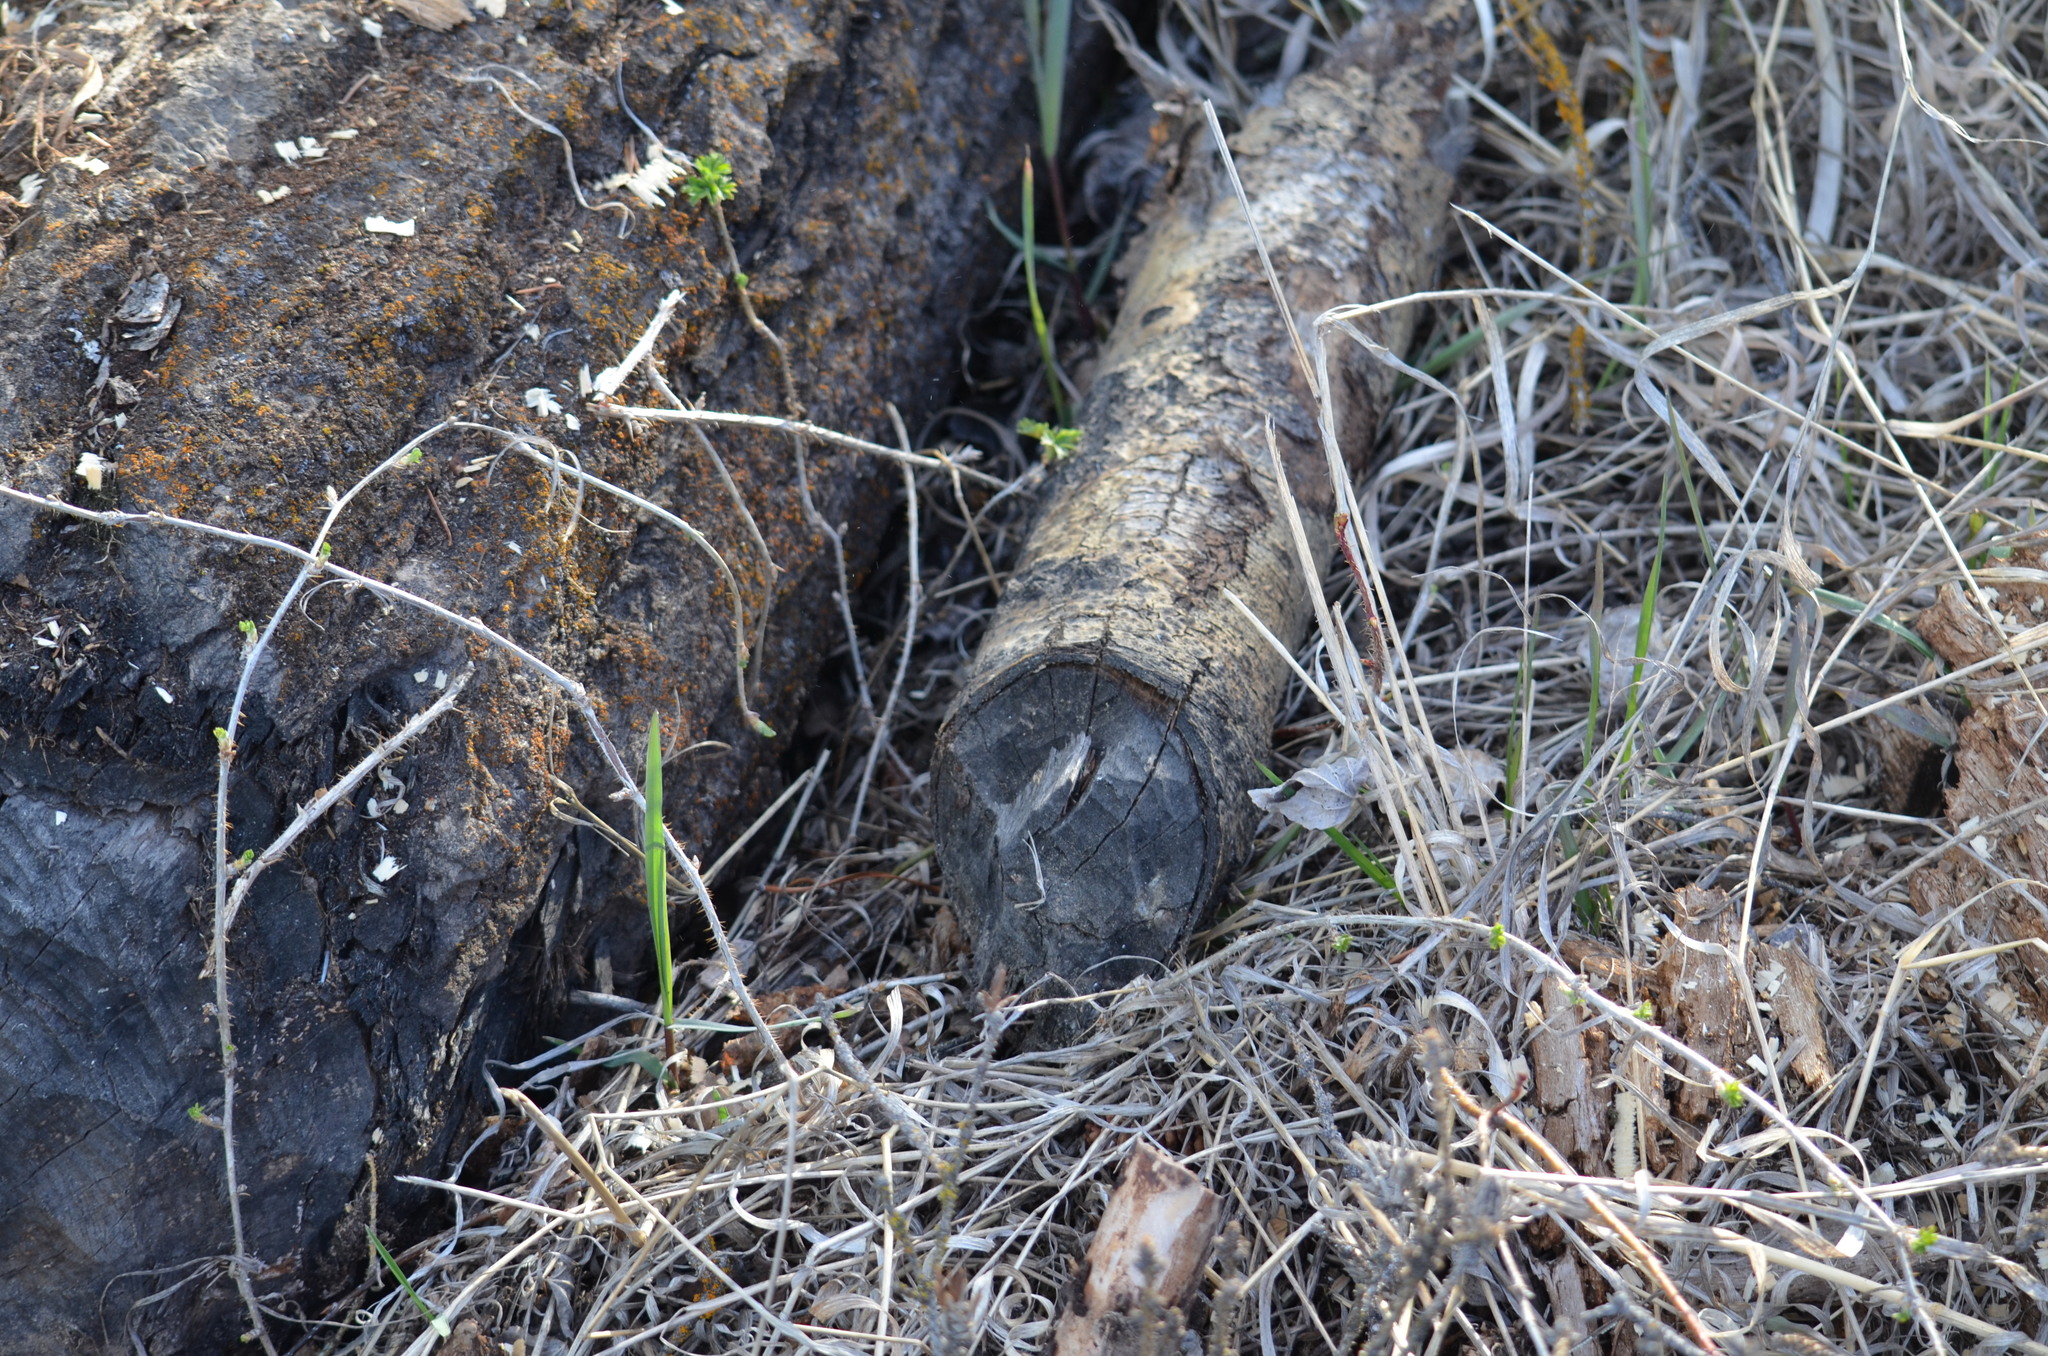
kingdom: Animalia
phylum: Chordata
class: Mammalia
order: Rodentia
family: Castoridae
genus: Castor
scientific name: Castor canadensis
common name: American beaver
